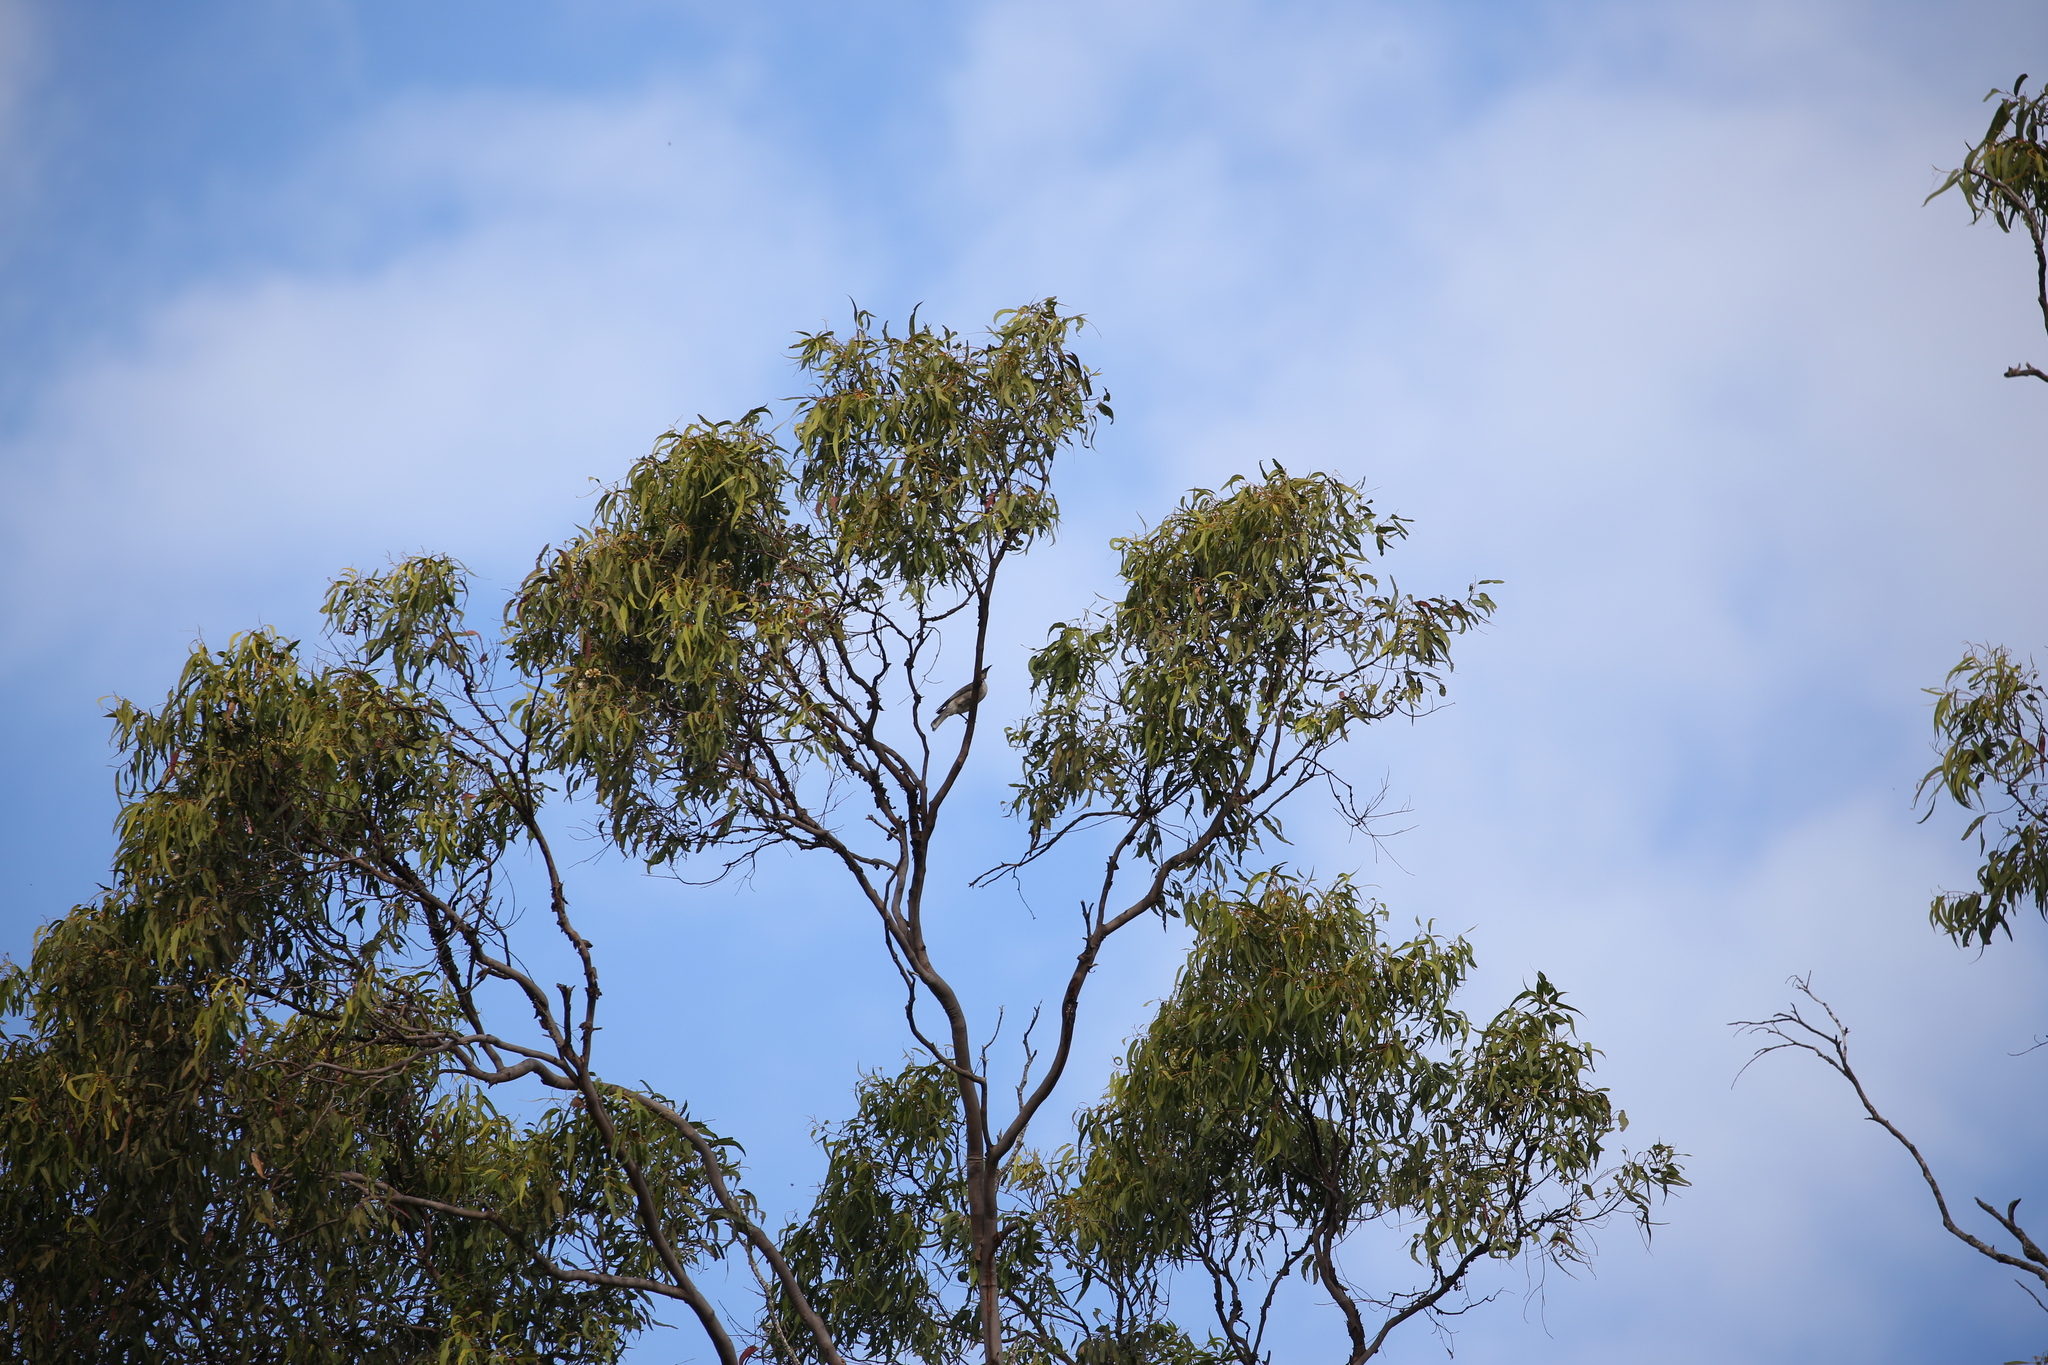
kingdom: Animalia
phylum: Chordata
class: Aves
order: Passeriformes
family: Meliphagidae
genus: Philemon
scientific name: Philemon corniculatus
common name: Noisy friarbird
